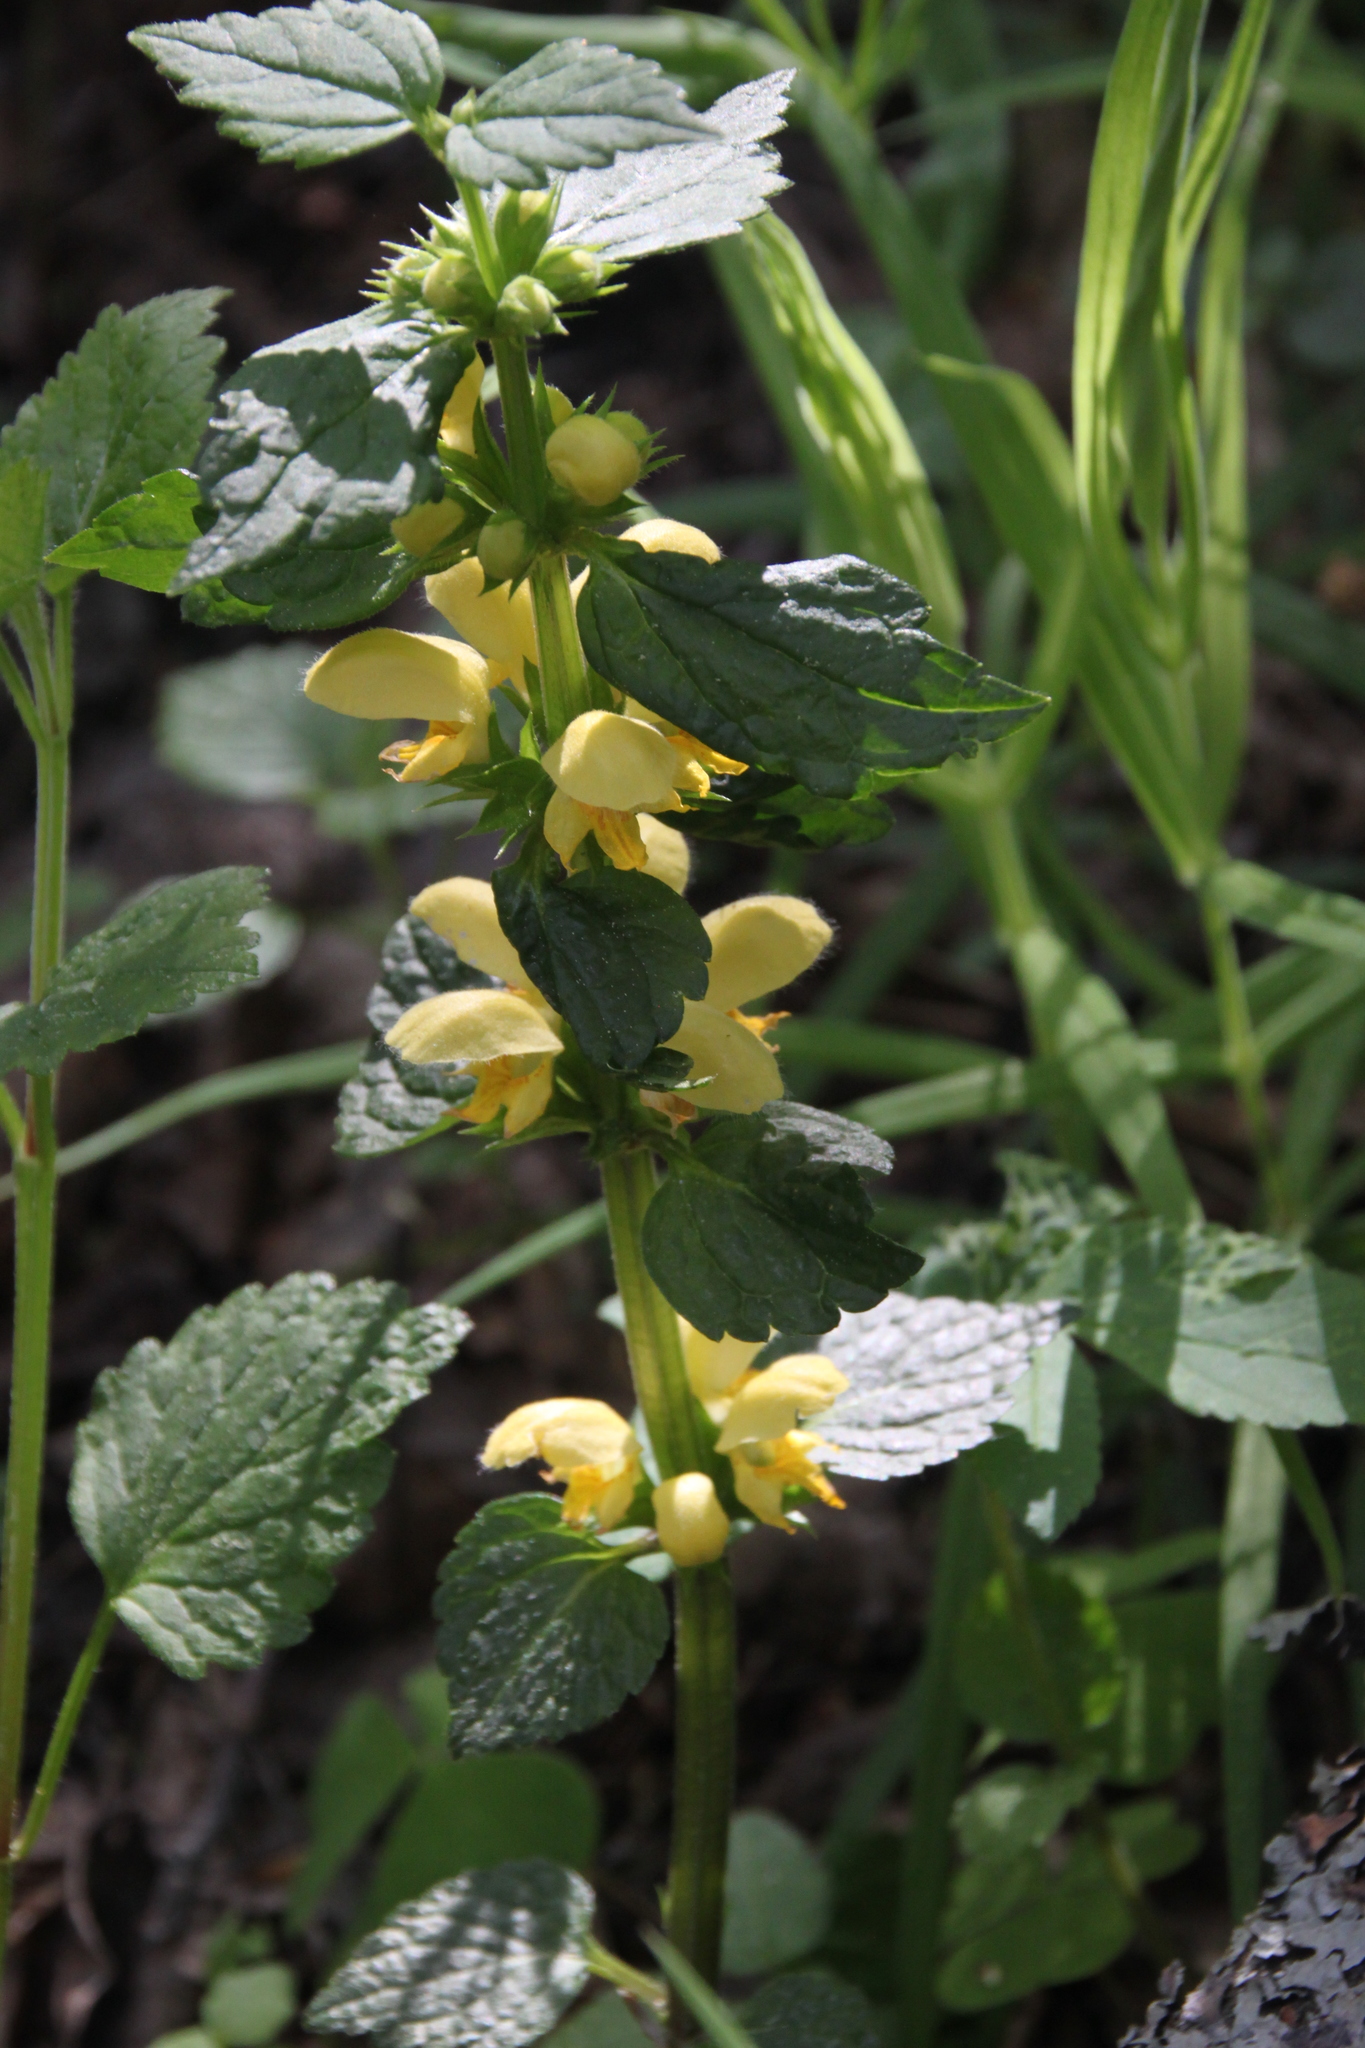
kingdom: Plantae
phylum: Tracheophyta
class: Magnoliopsida
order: Lamiales
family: Lamiaceae
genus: Lamium
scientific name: Lamium galeobdolon
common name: Yellow archangel
